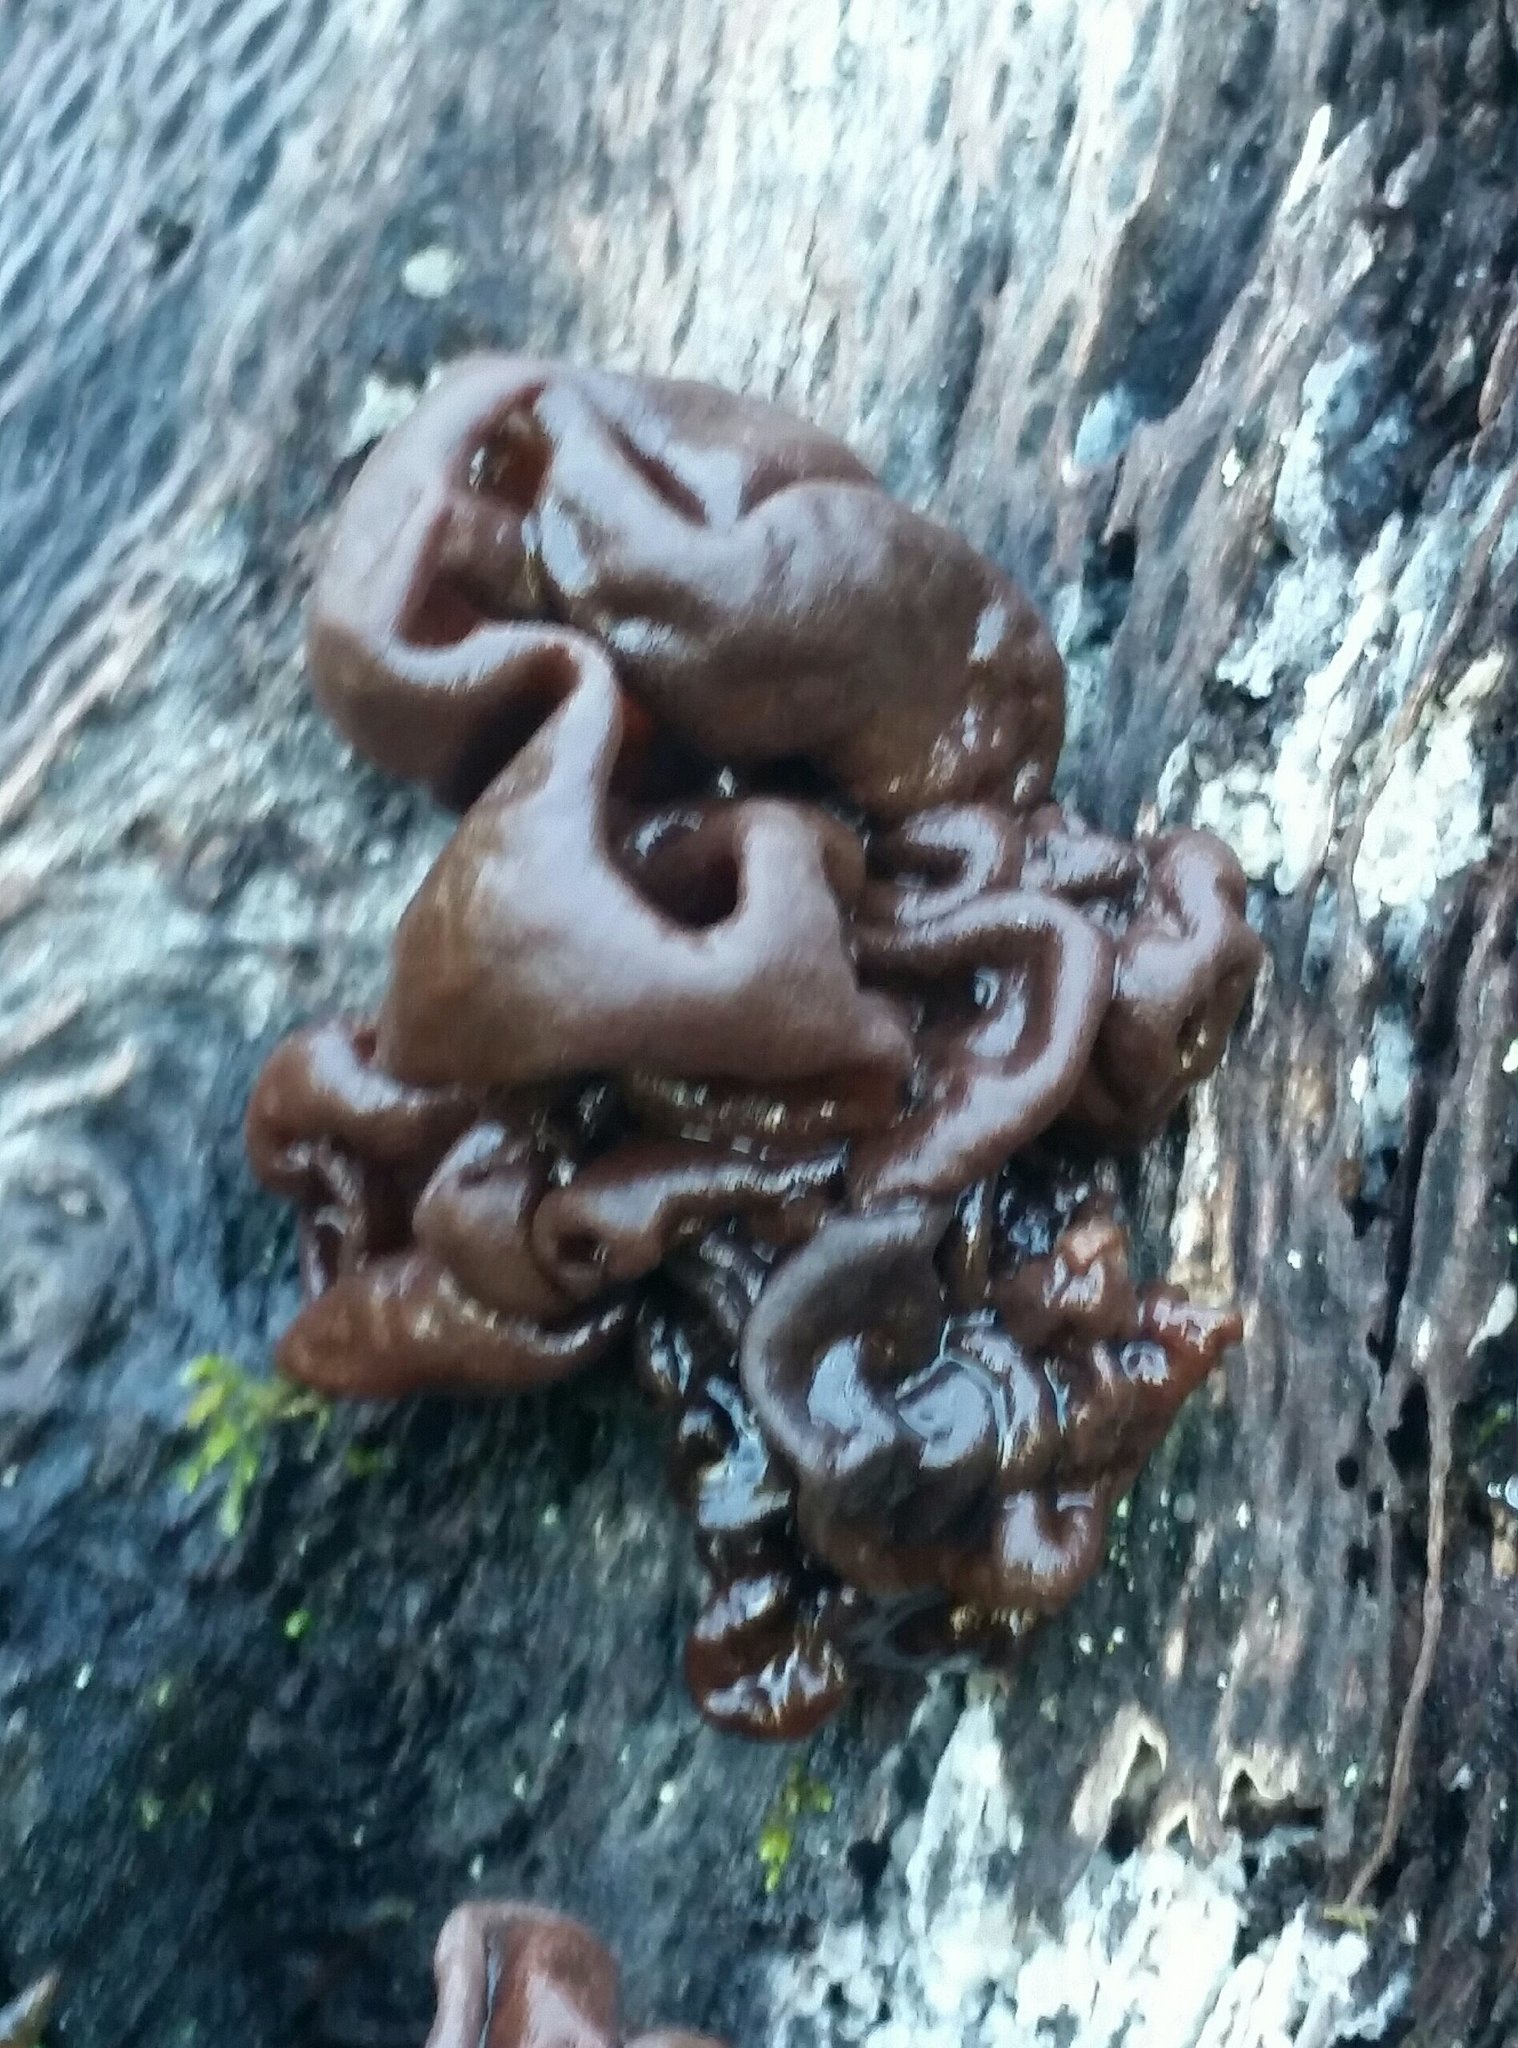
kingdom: Fungi
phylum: Basidiomycota
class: Tremellomycetes
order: Tremellales
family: Tremellaceae
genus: Phaeotremella
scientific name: Phaeotremella foliacea
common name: Leafy brain
